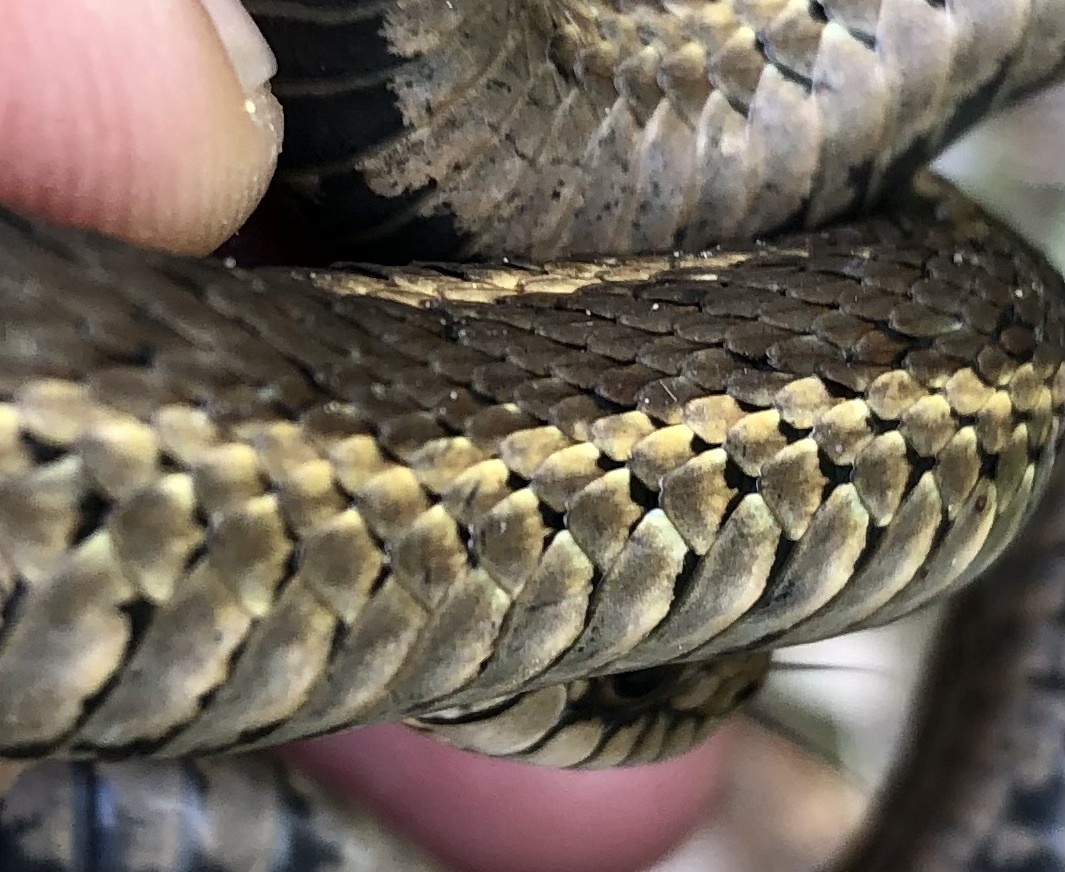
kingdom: Animalia
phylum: Chordata
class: Squamata
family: Colubridae
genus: Thamnophis
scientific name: Thamnophis elegans
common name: Western terrestrial garter snake
